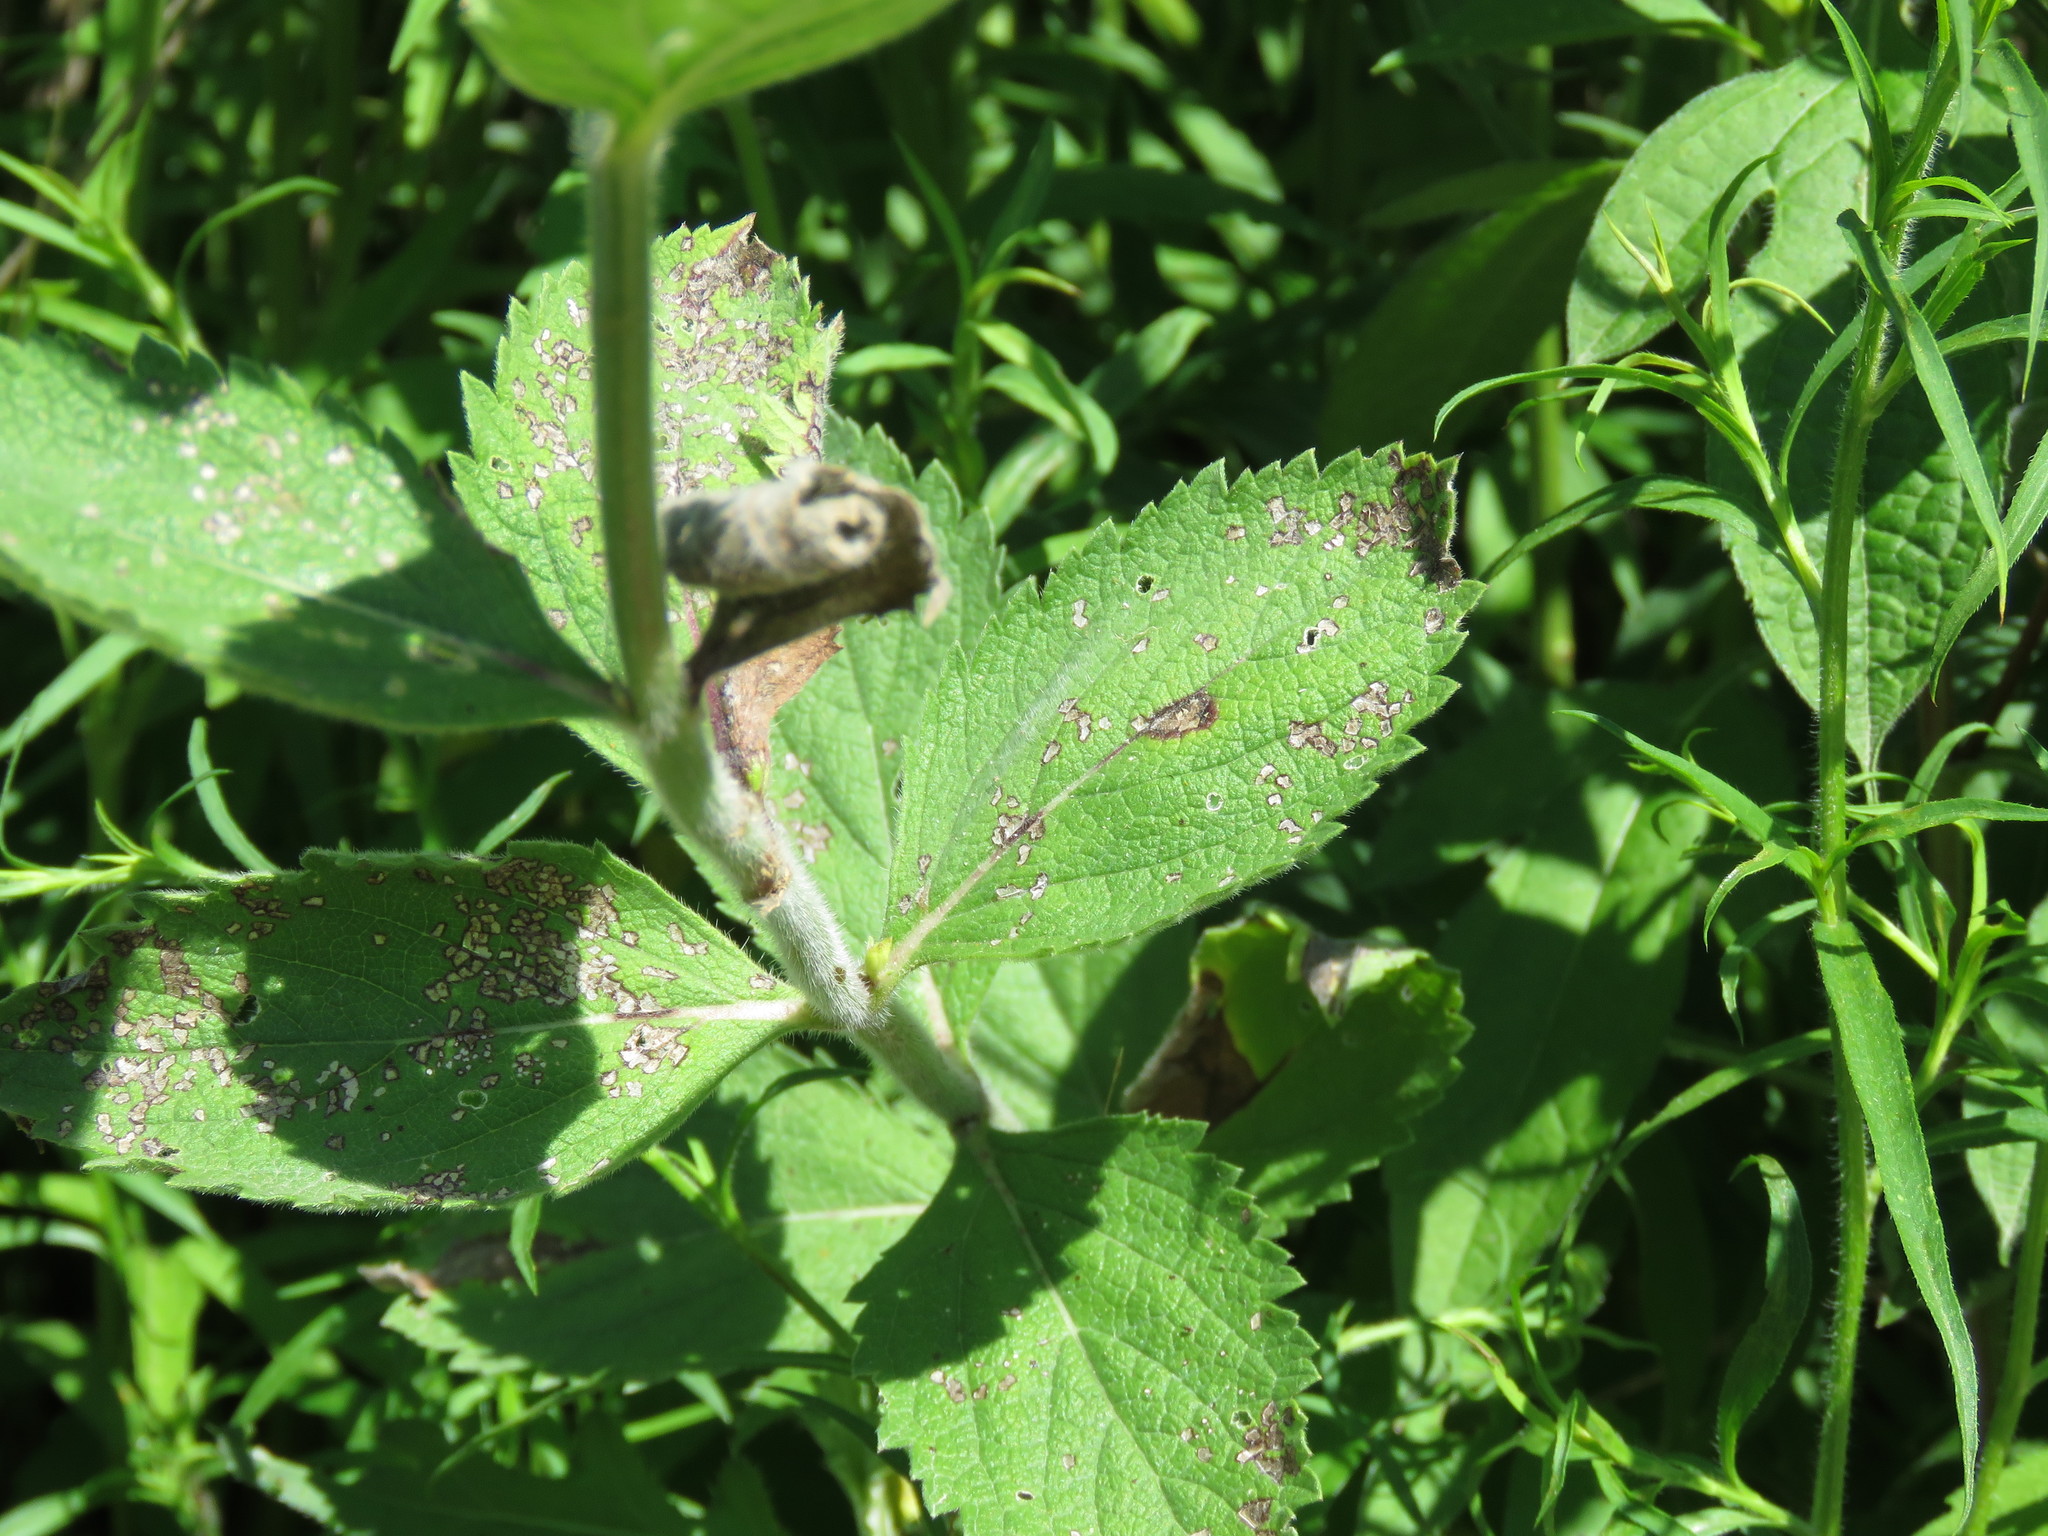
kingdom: Plantae
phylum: Tracheophyta
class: Magnoliopsida
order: Lamiales
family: Verbenaceae
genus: Verbena
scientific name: Verbena stricta
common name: Hoary vervain
